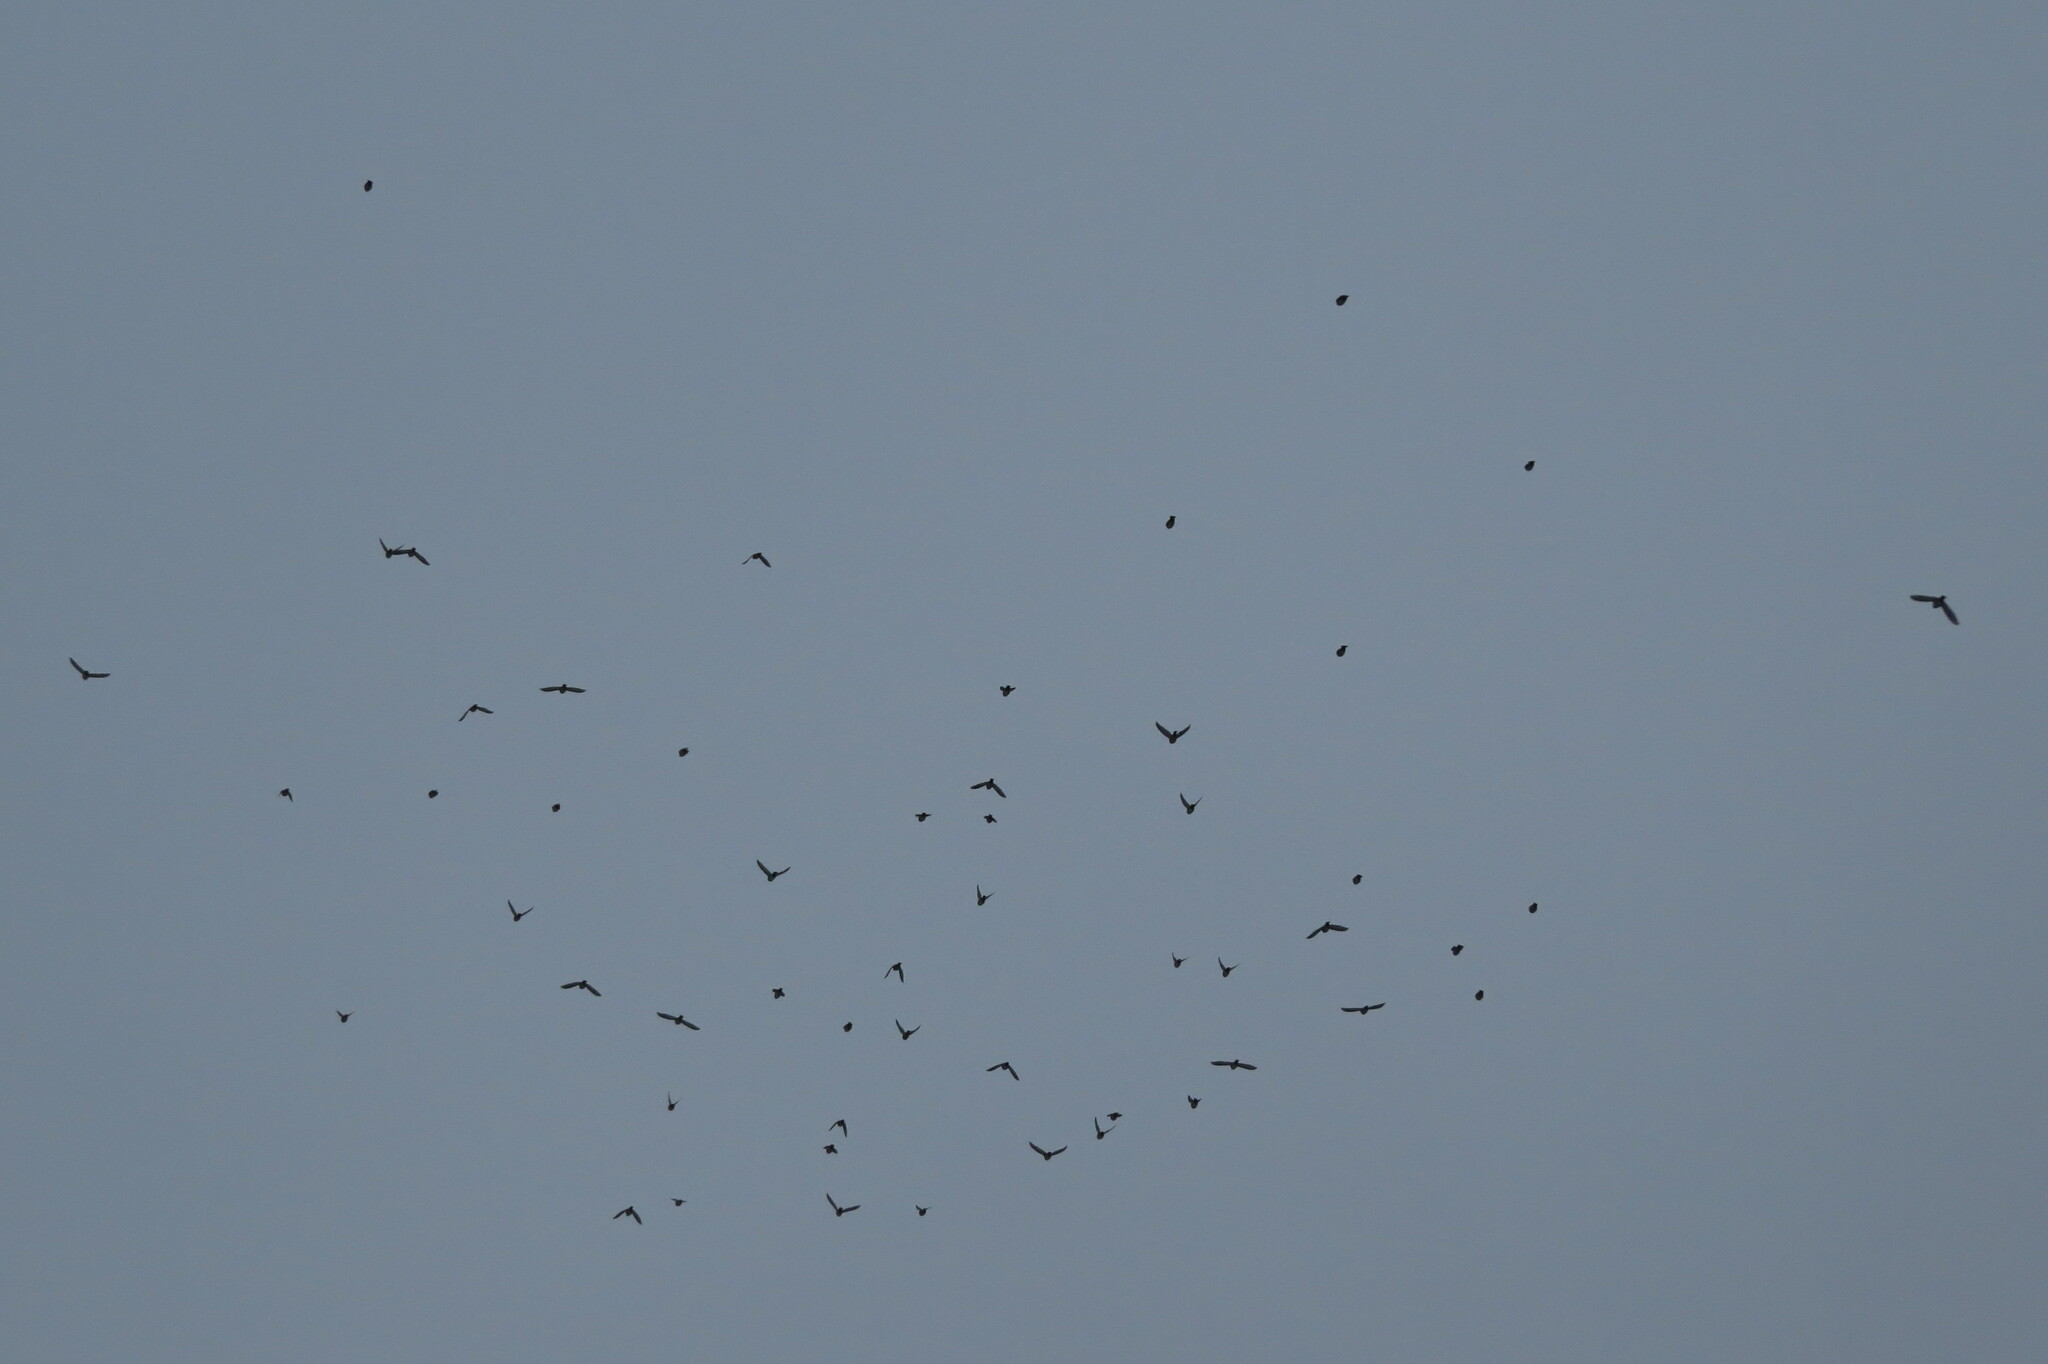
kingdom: Animalia
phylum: Chordata
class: Aves
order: Passeriformes
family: Bombycillidae
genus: Bombycilla
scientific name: Bombycilla garrulus
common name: Bohemian waxwing
